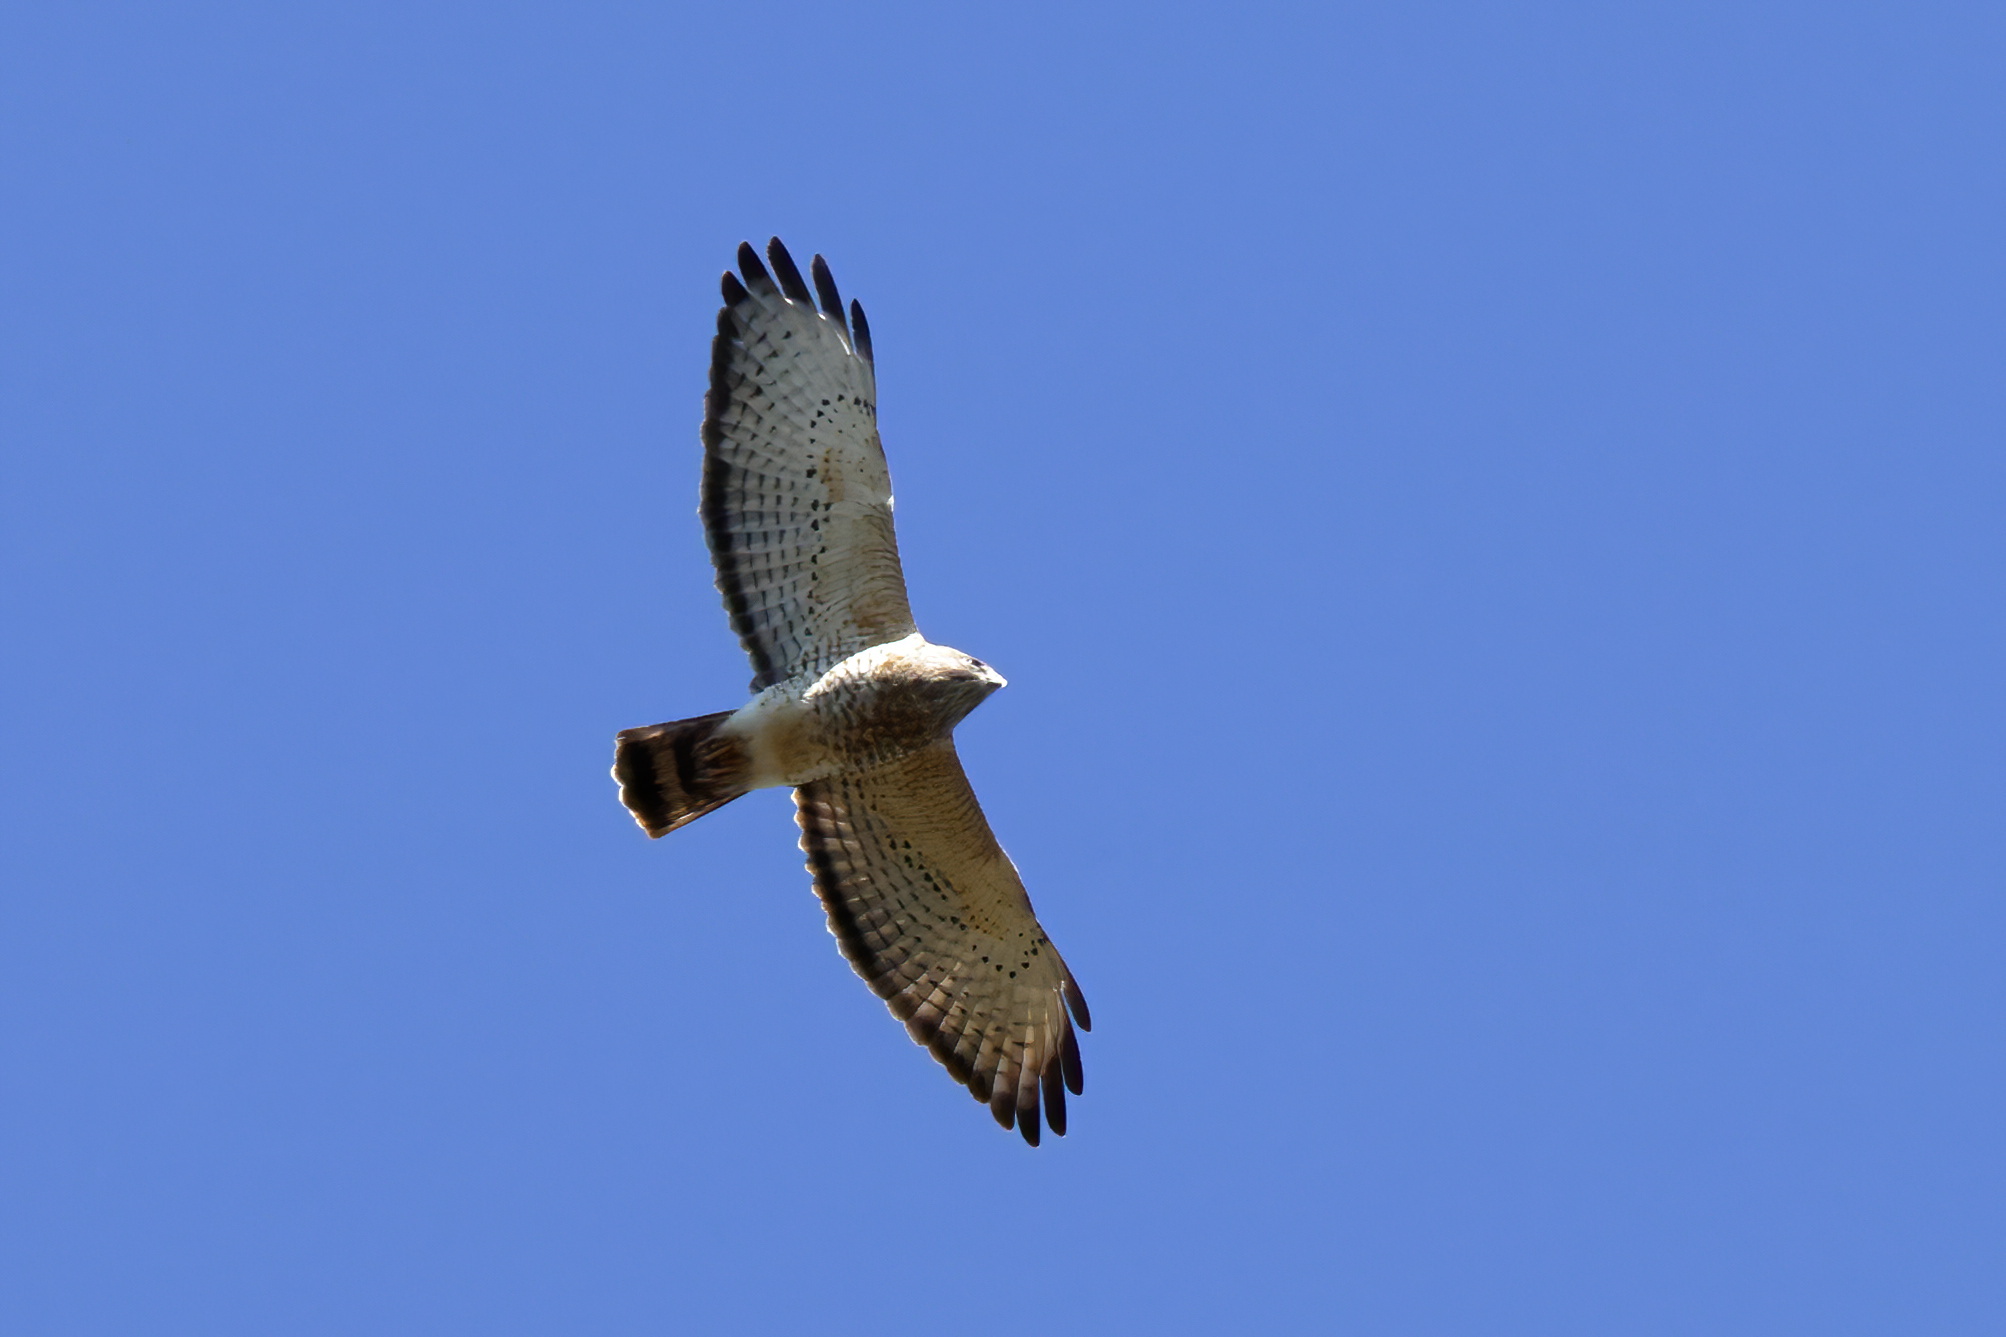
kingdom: Animalia
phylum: Chordata
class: Aves
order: Accipitriformes
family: Accipitridae
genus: Buteo
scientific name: Buteo platypterus
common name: Broad-winged hawk
